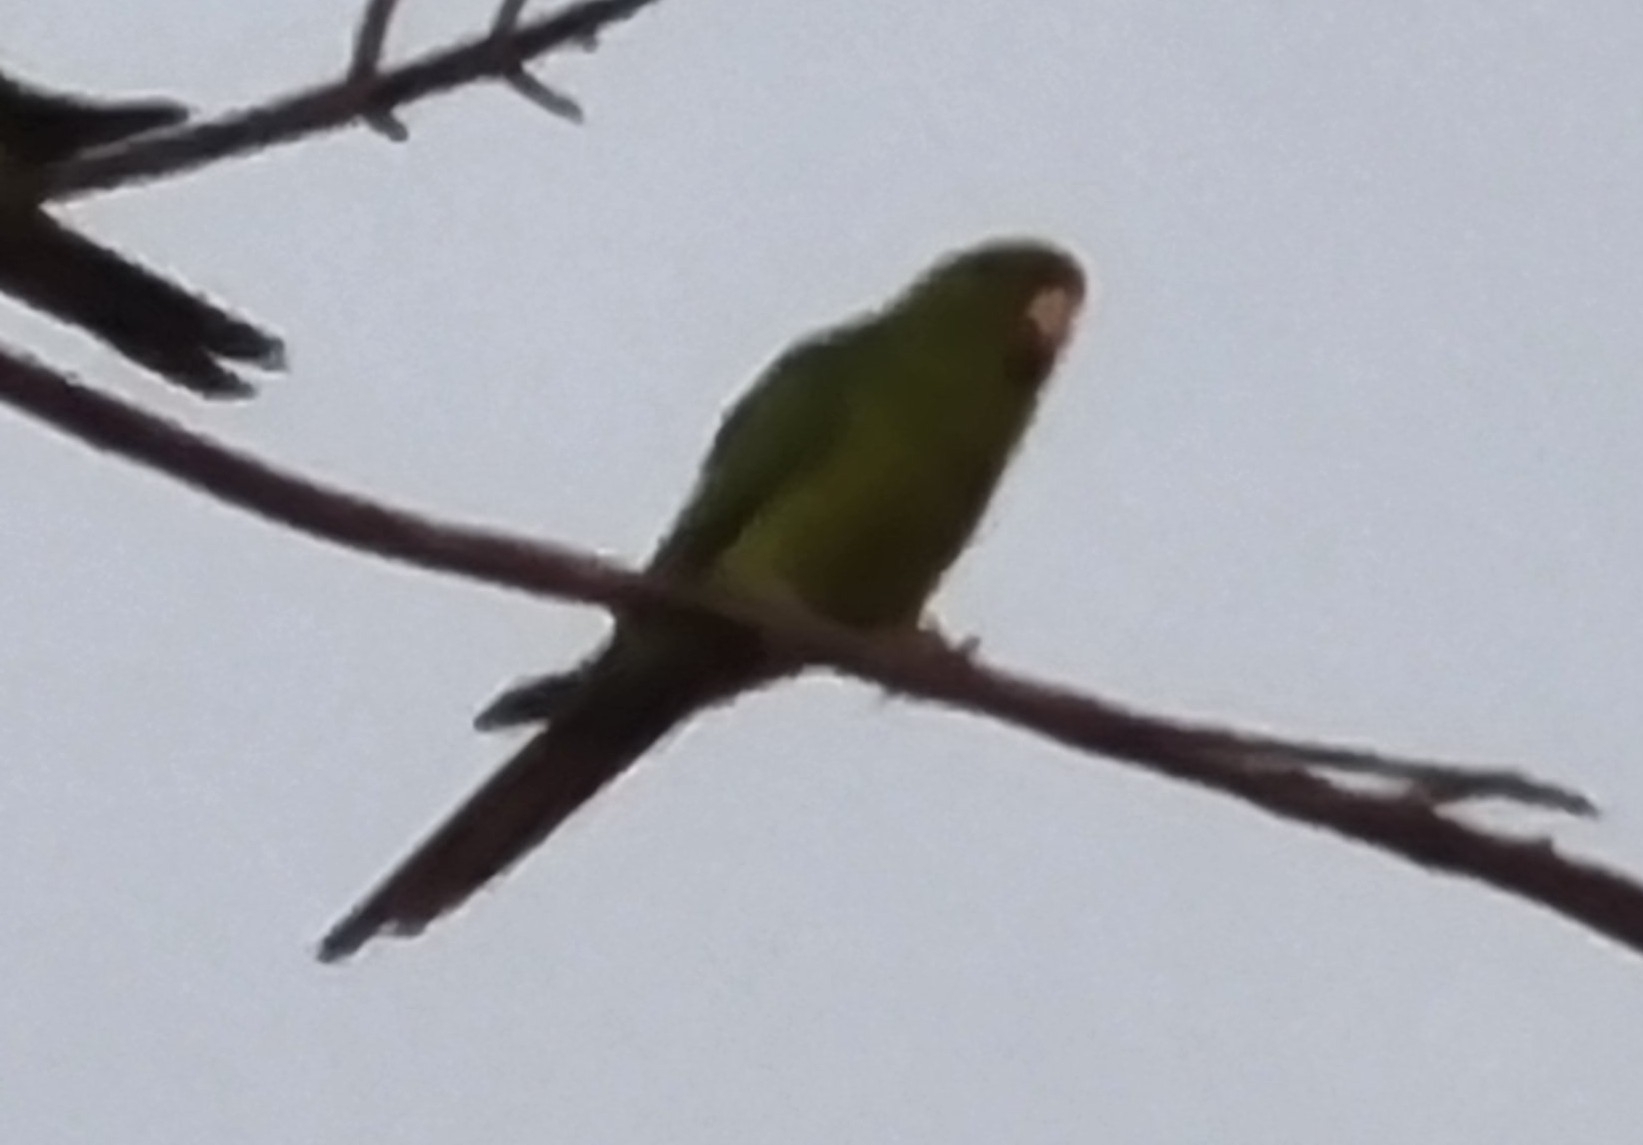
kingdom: Animalia
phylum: Chordata
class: Aves
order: Psittaciformes
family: Psittacidae
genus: Aratinga
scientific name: Aratinga holochlora
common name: Green parakeet
